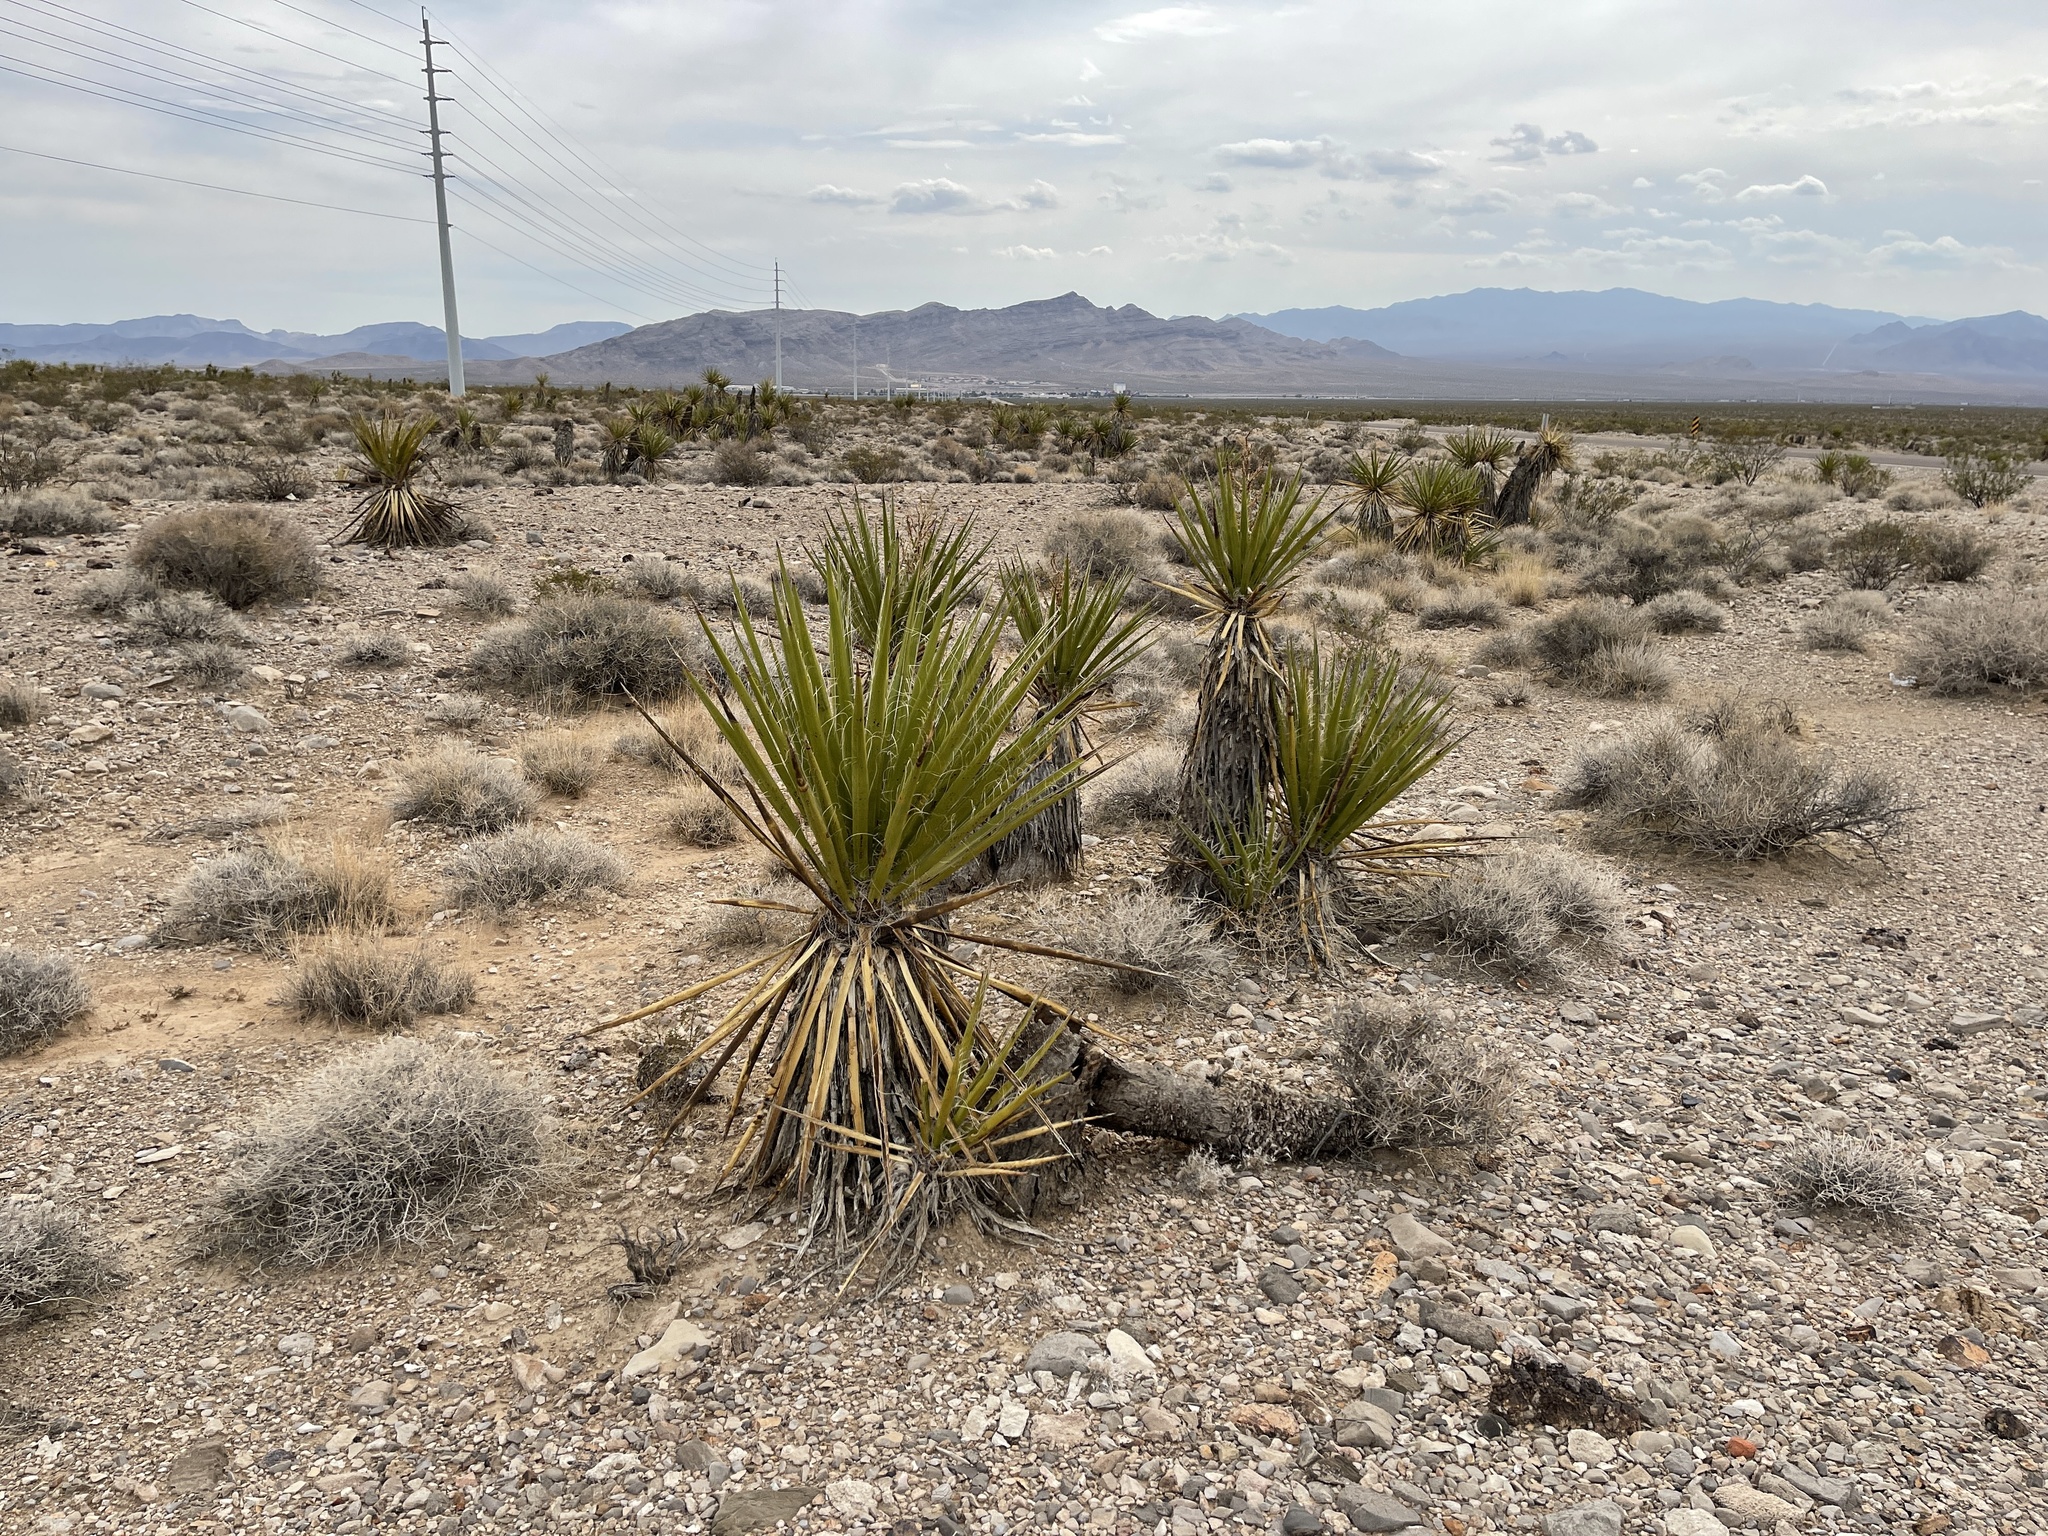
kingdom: Plantae
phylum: Tracheophyta
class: Liliopsida
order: Asparagales
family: Asparagaceae
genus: Yucca
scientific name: Yucca schidigera
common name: Mojave yucca
